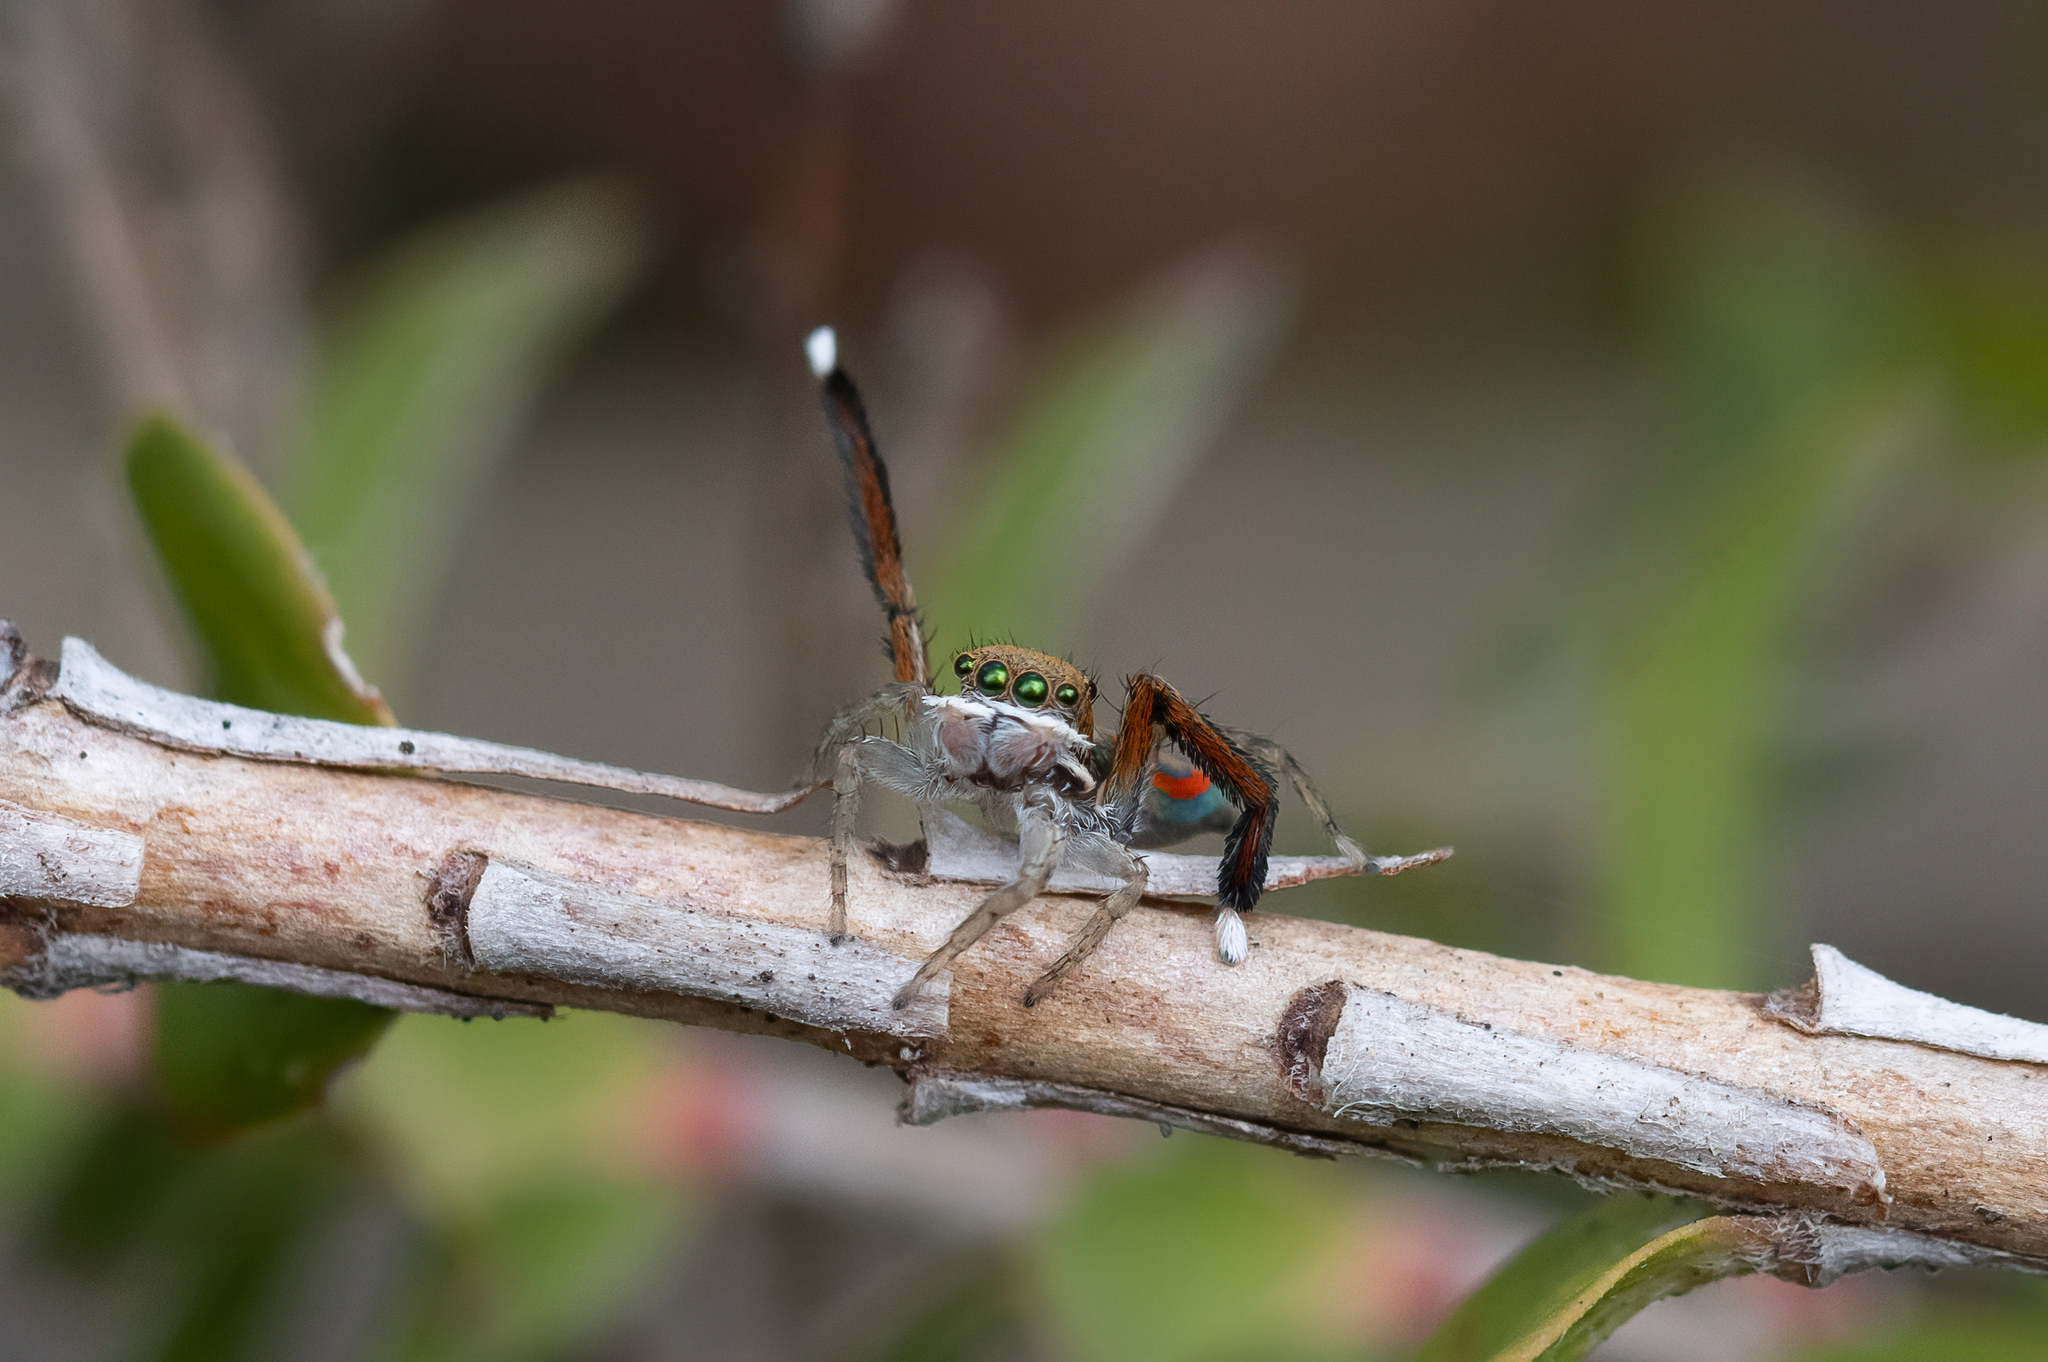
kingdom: Animalia
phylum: Arthropoda
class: Arachnida
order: Araneae
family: Salticidae
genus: Maratus
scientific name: Maratus pavonis
